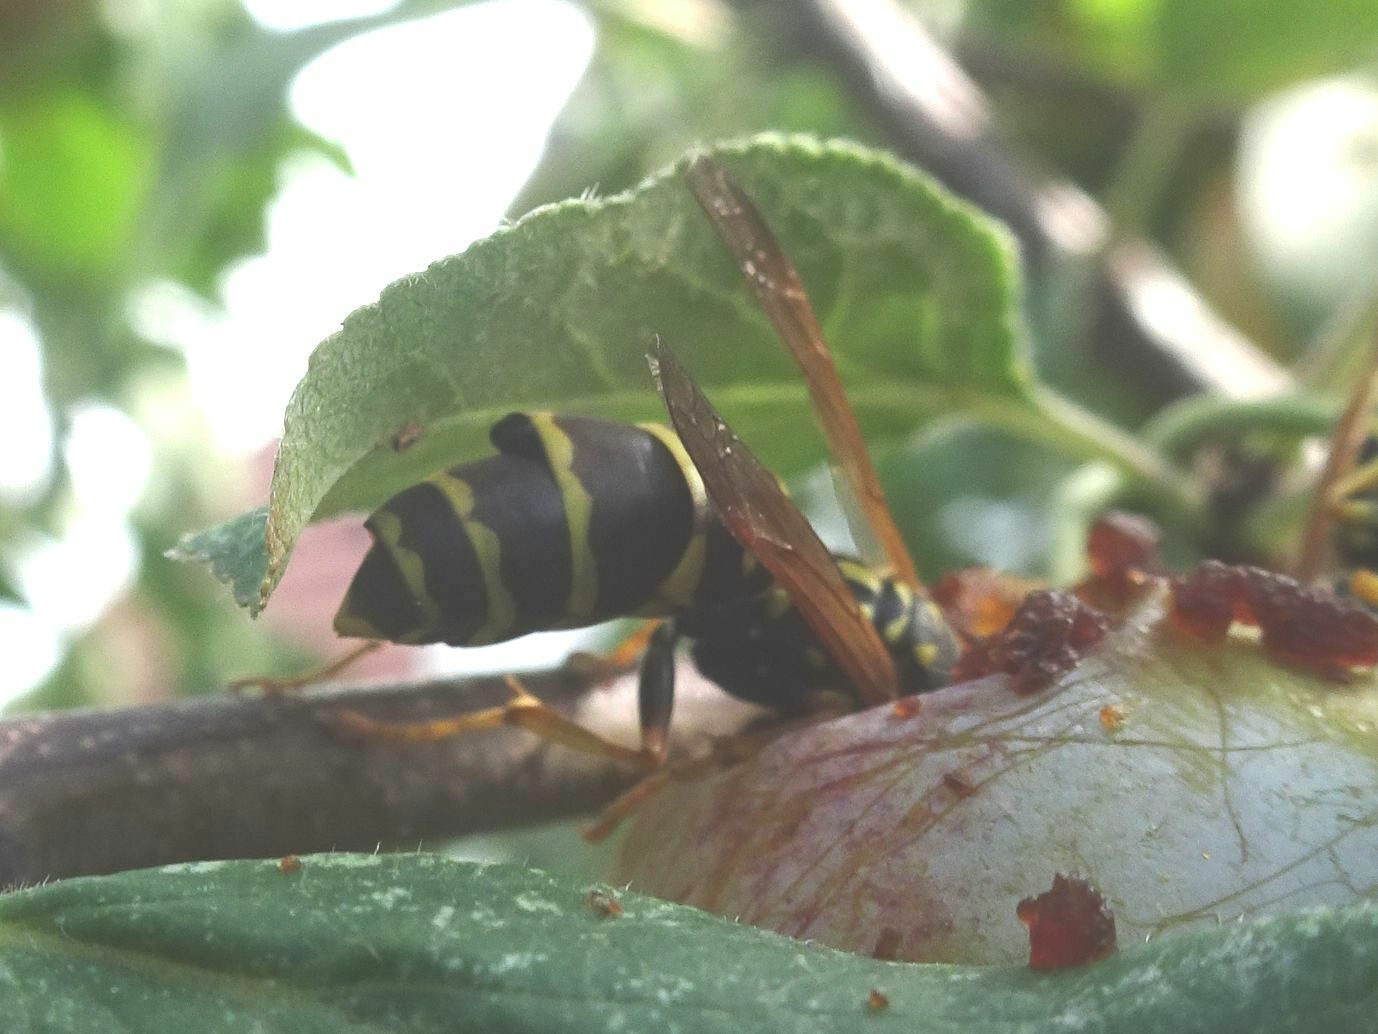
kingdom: Animalia
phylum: Arthropoda
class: Insecta
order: Strepsiptera
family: Xenidae
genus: Xenos
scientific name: Xenos vesparum
